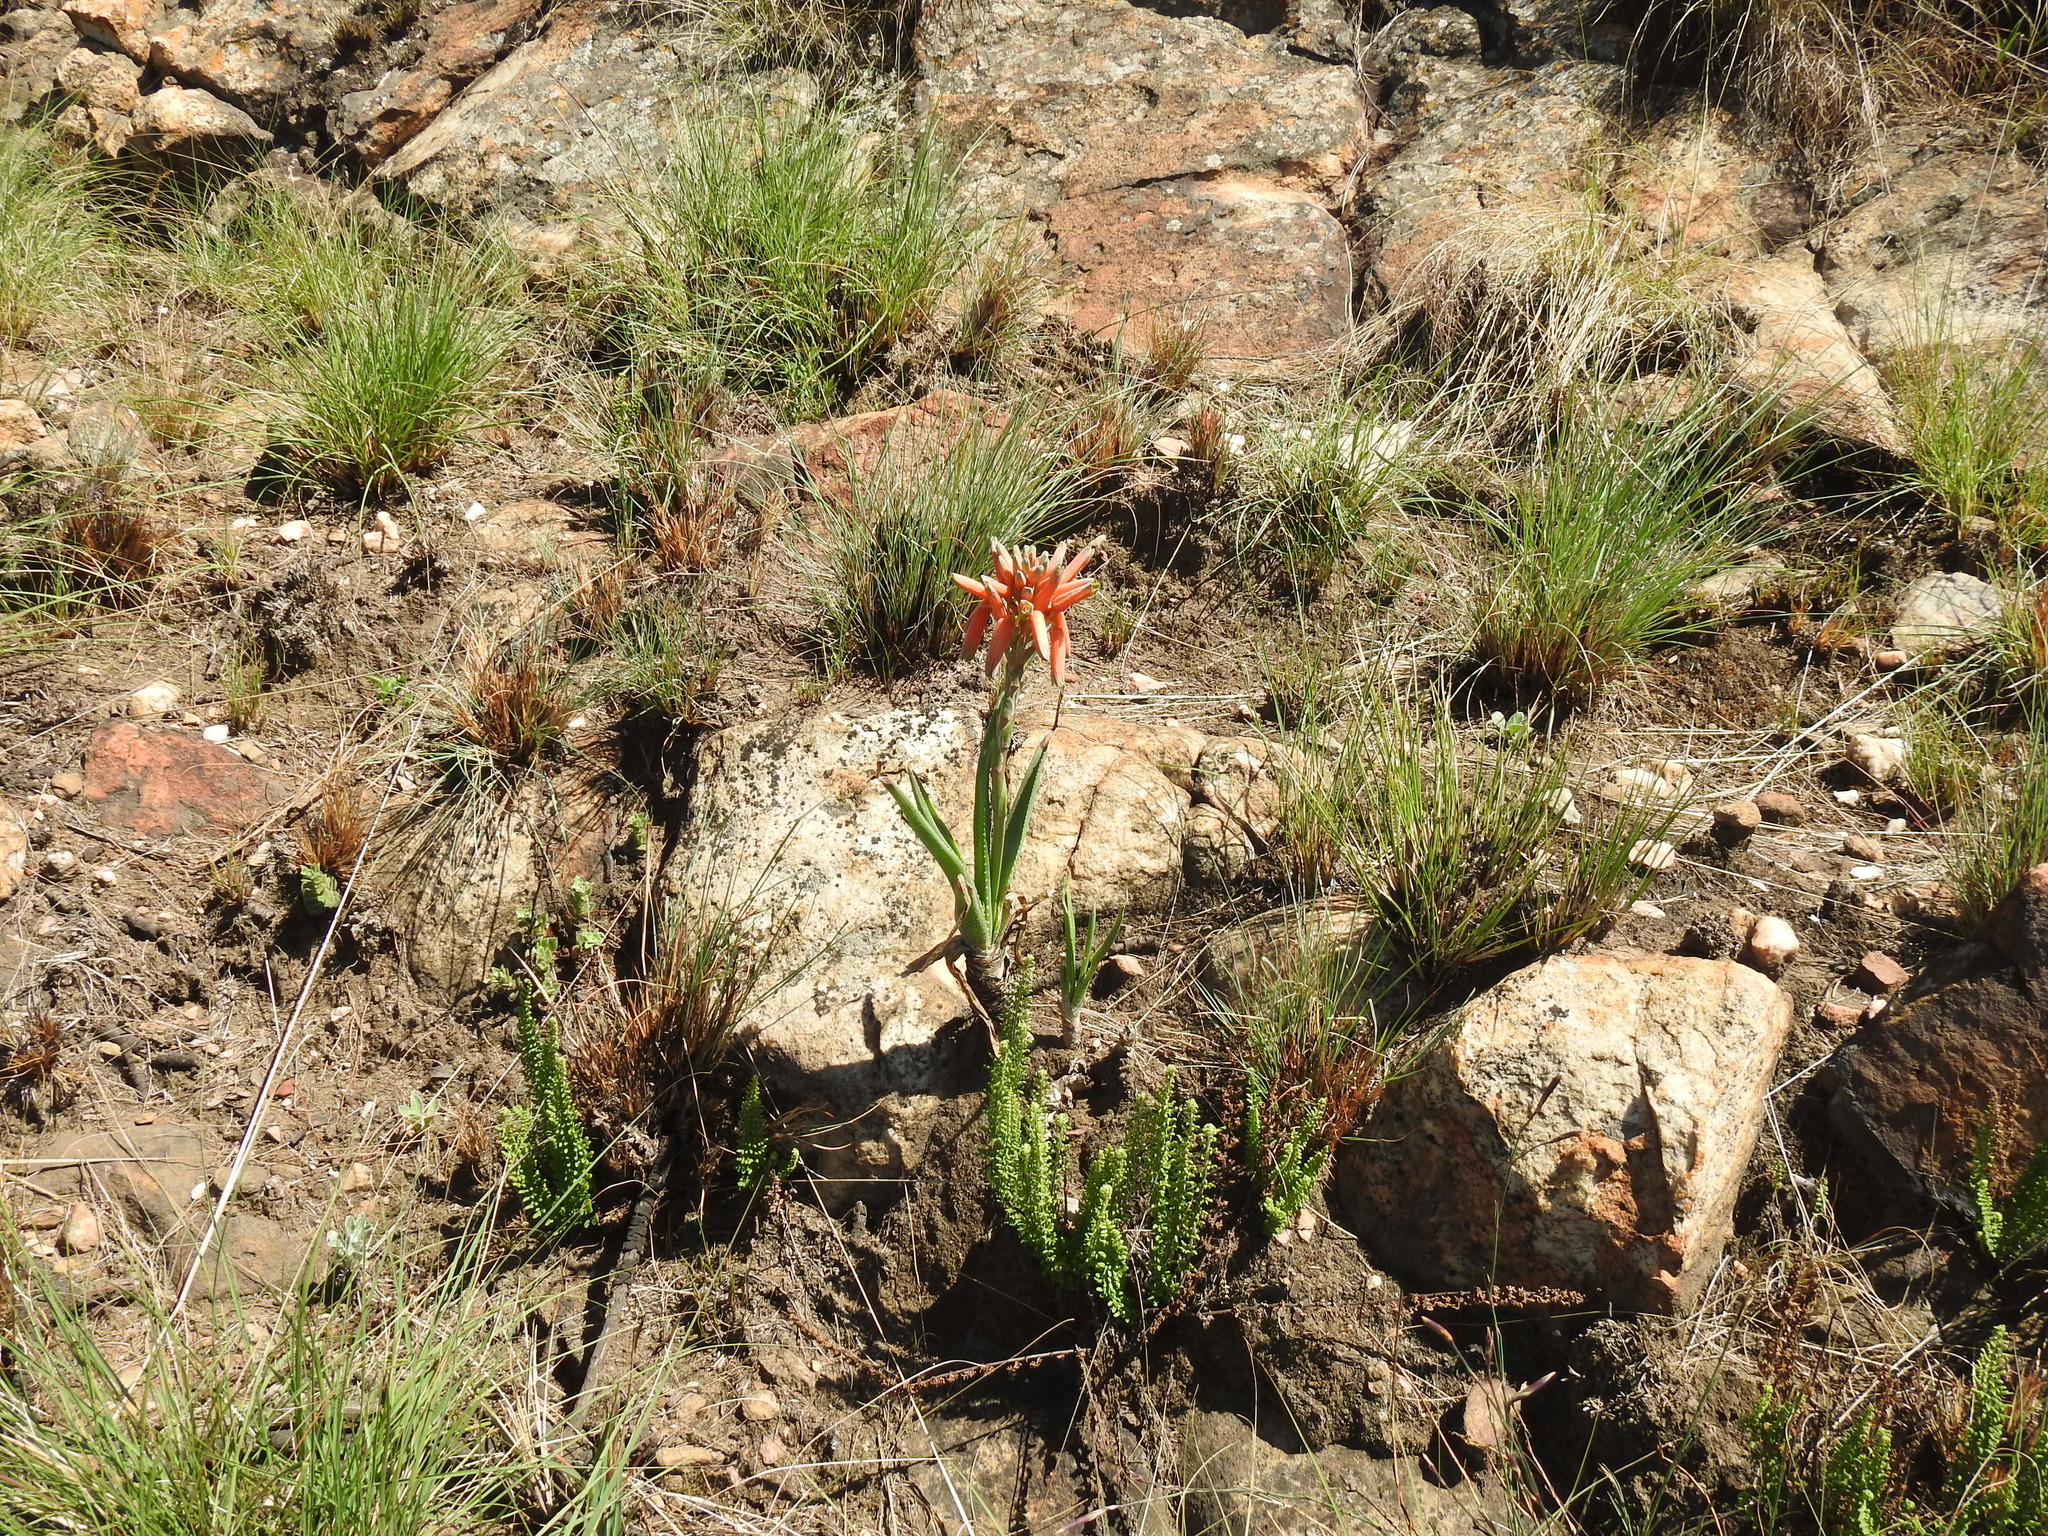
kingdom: Plantae
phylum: Tracheophyta
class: Liliopsida
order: Asparagales
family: Asphodelaceae
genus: Aloe
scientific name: Aloe verecunda
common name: Grass aloe
